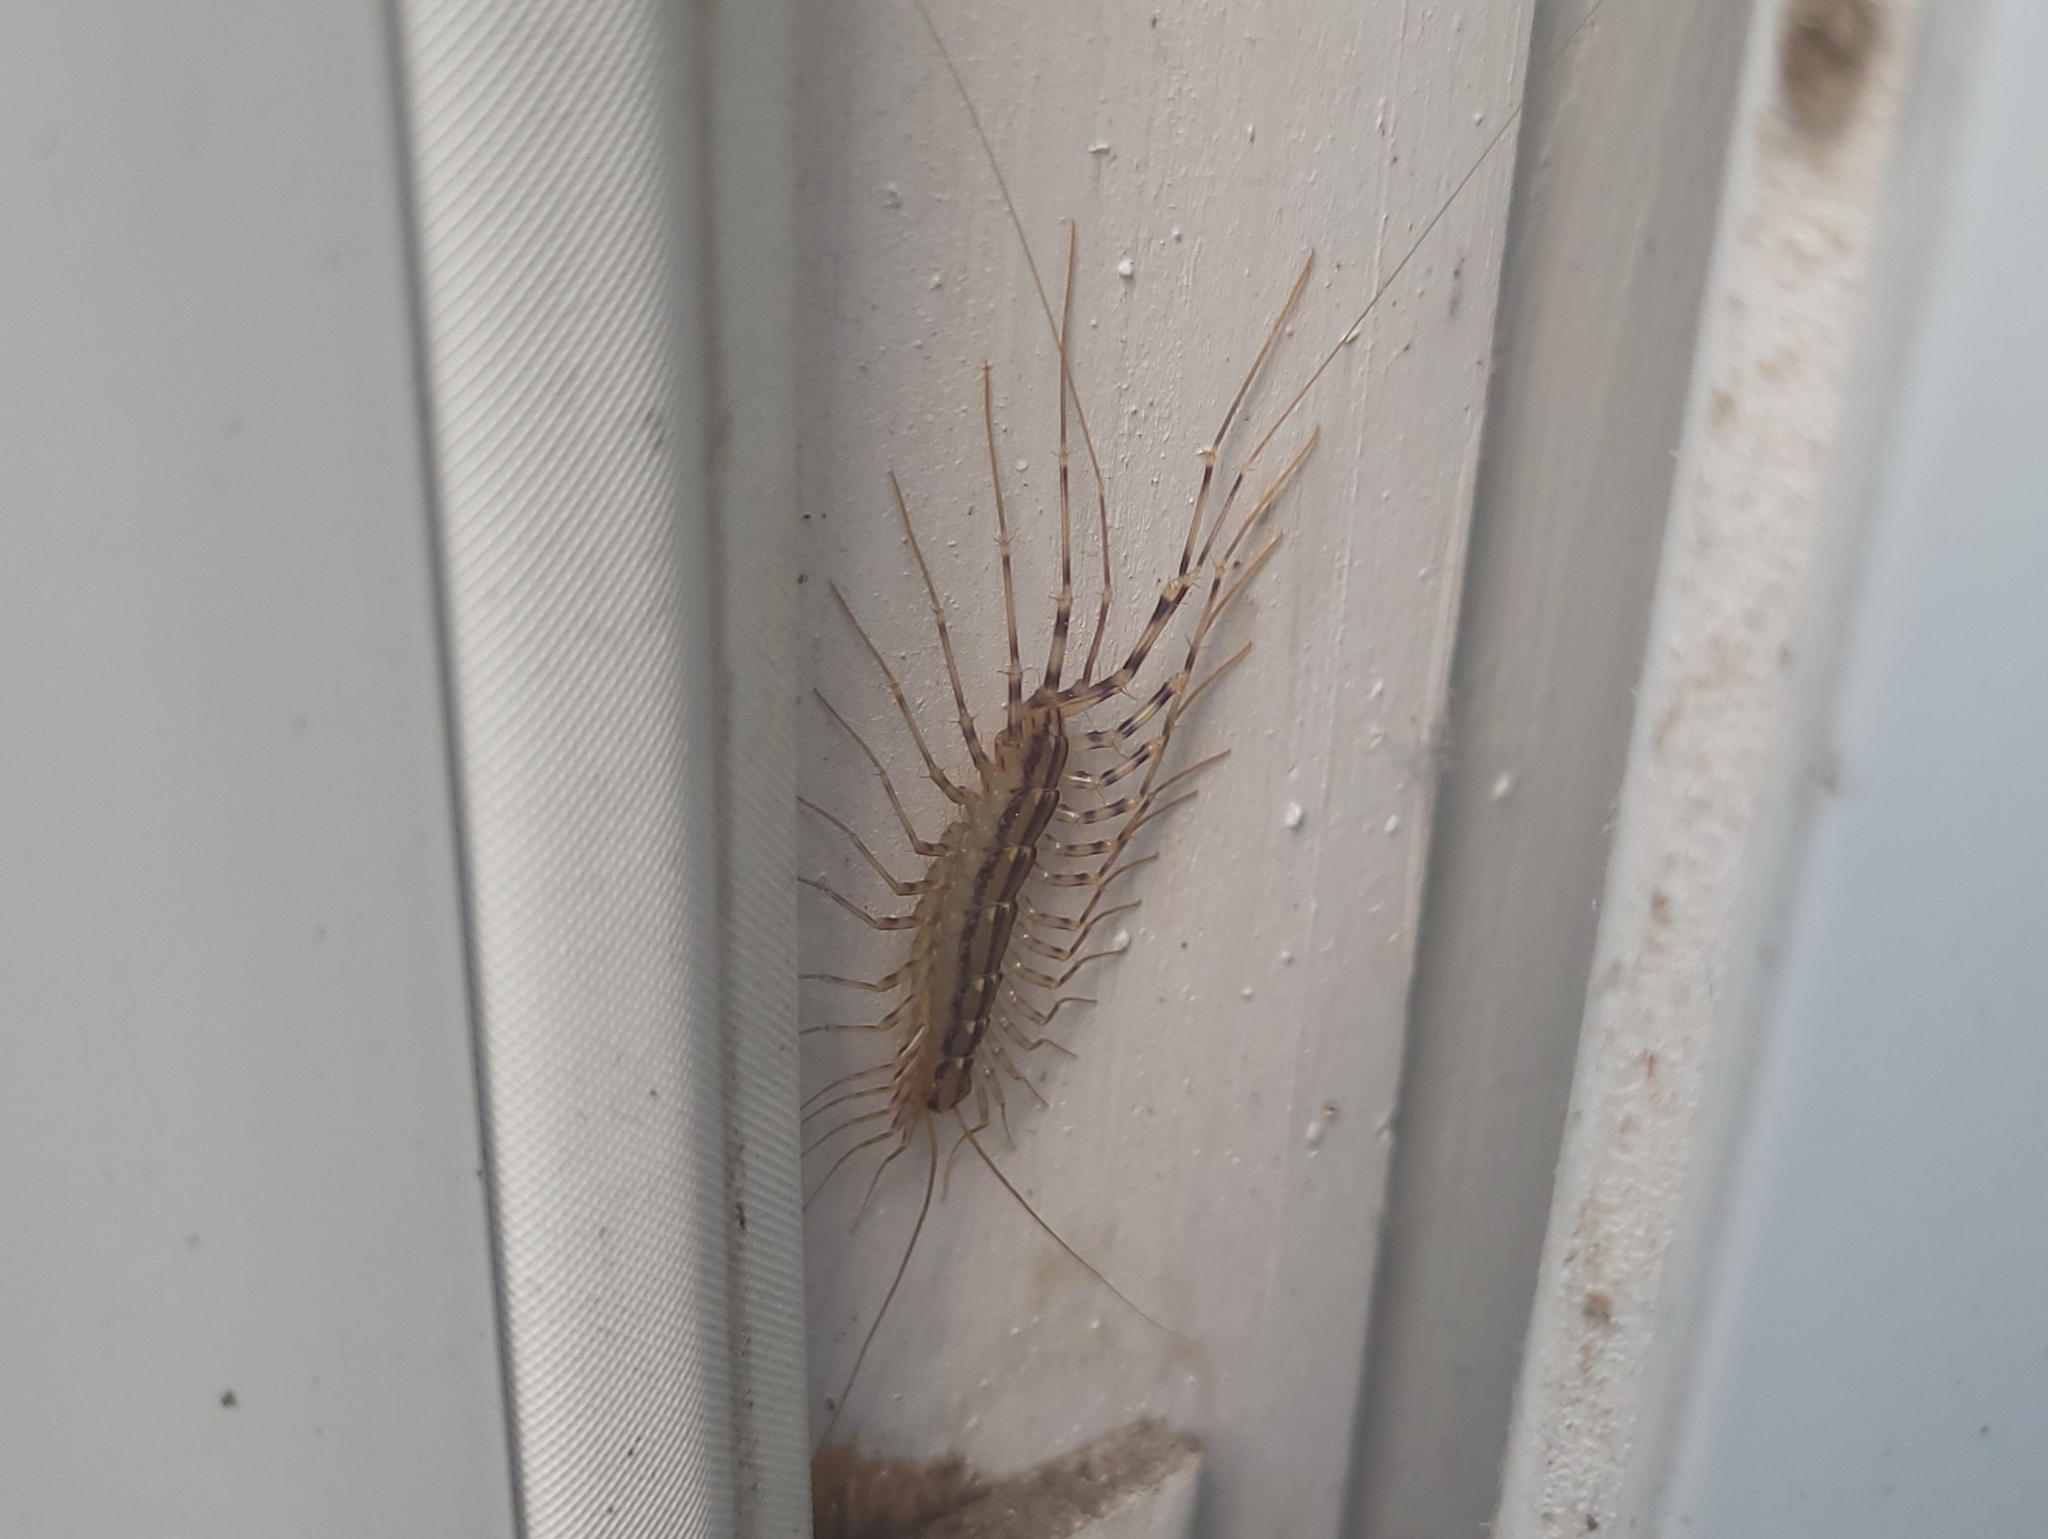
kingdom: Animalia
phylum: Arthropoda
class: Chilopoda
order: Scutigeromorpha
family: Scutigeridae
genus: Scutigera
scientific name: Scutigera coleoptrata
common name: House centipede
